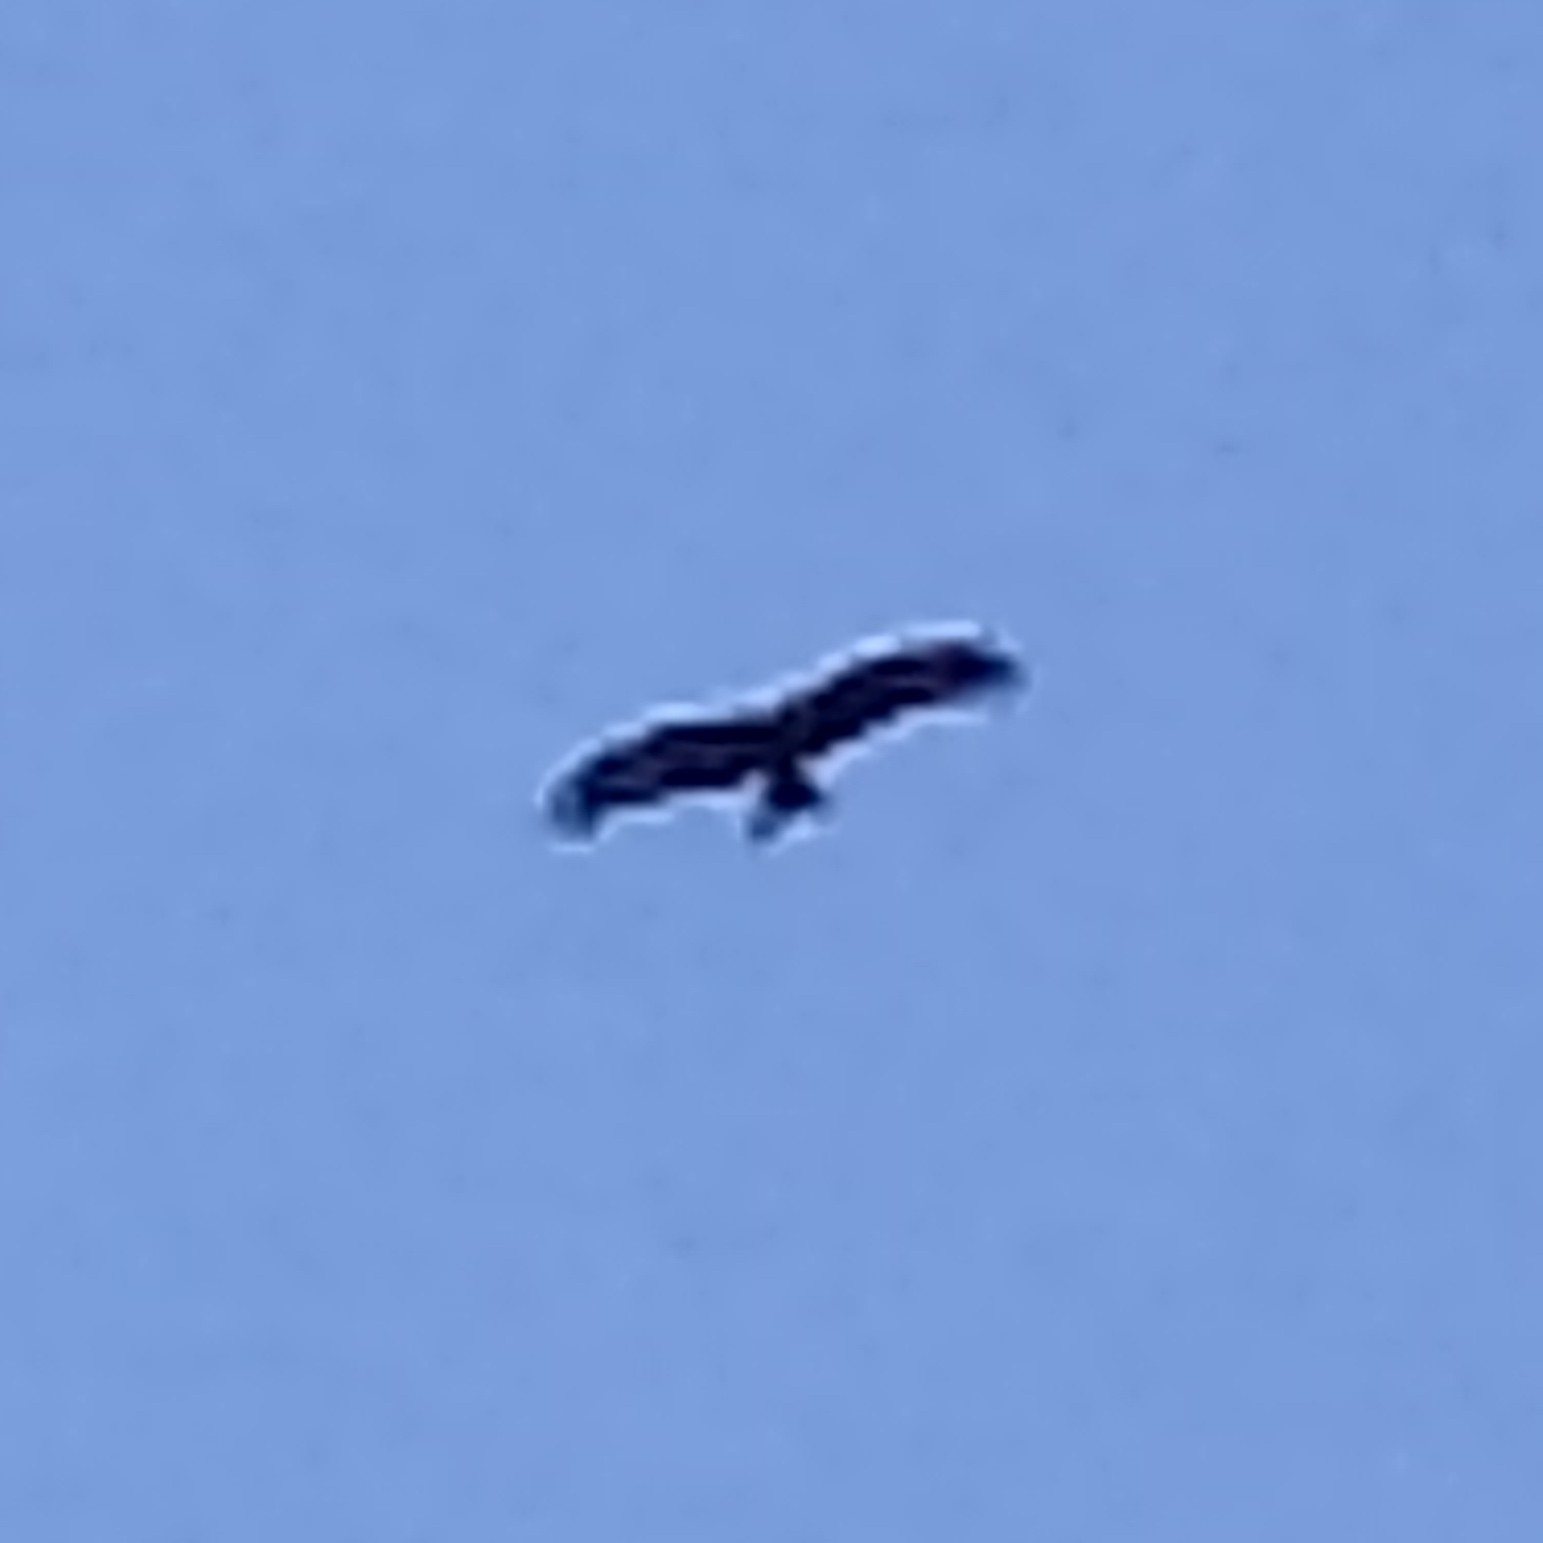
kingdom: Animalia
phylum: Chordata
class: Aves
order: Accipitriformes
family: Accipitridae
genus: Milvus
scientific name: Milvus migrans
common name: Black kite
